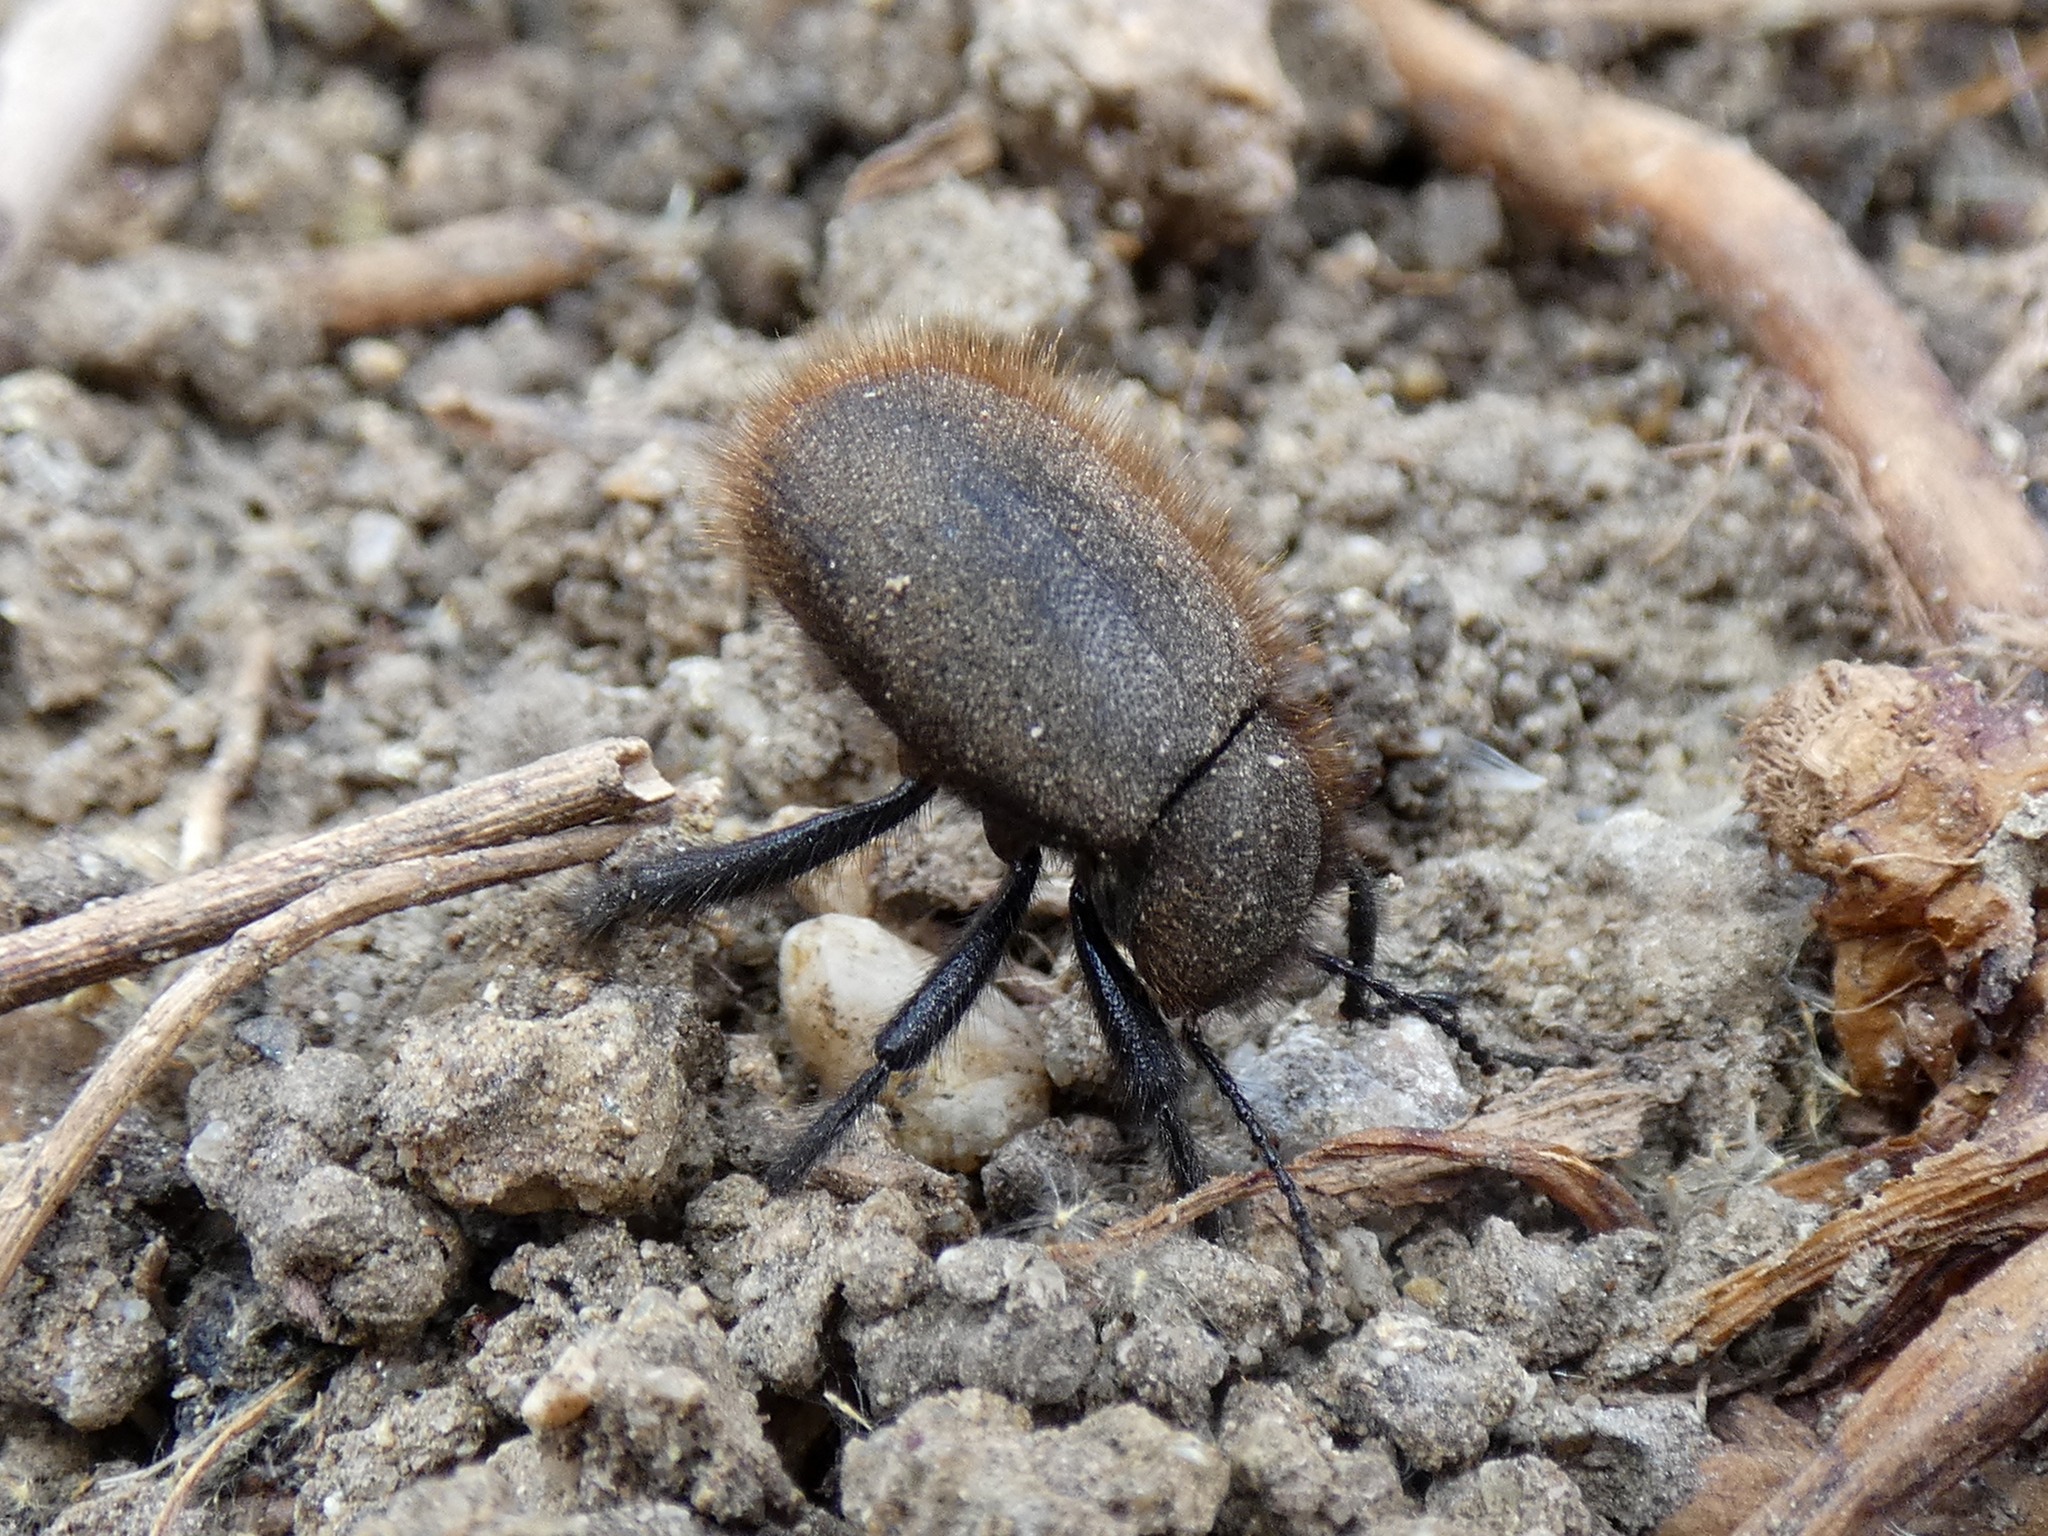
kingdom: Animalia
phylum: Arthropoda
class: Insecta
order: Coleoptera
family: Tenebrionidae
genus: Eleodes
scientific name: Eleodes osculans
